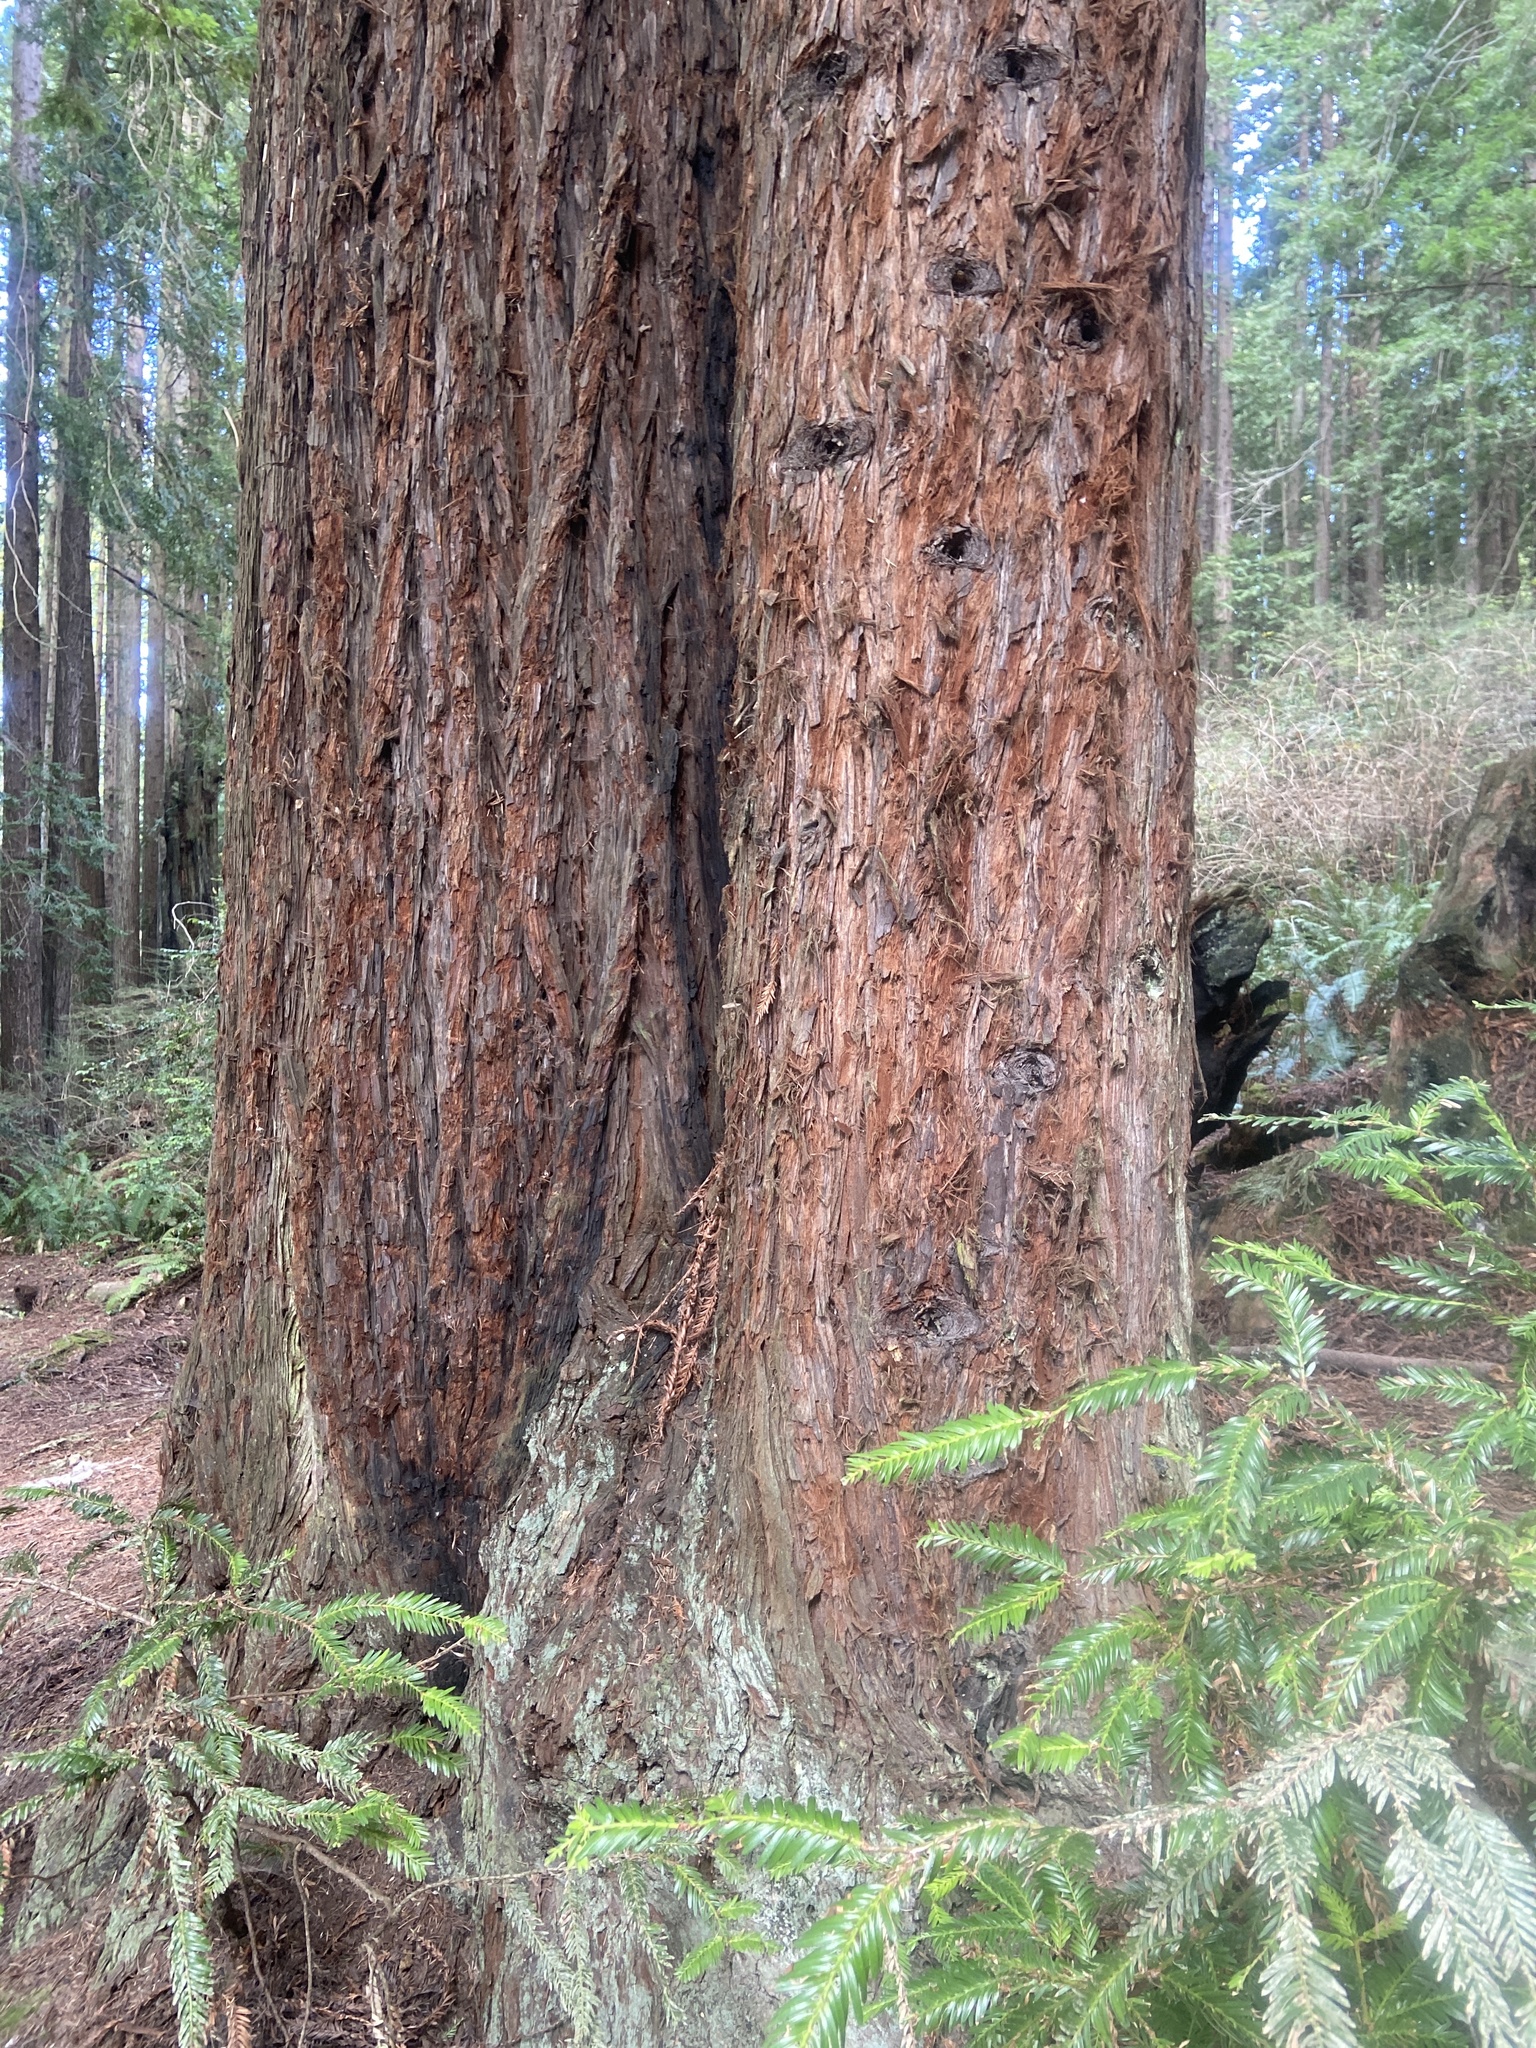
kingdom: Plantae
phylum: Tracheophyta
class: Pinopsida
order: Pinales
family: Cupressaceae
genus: Sequoia
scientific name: Sequoia sempervirens
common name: Coast redwood
